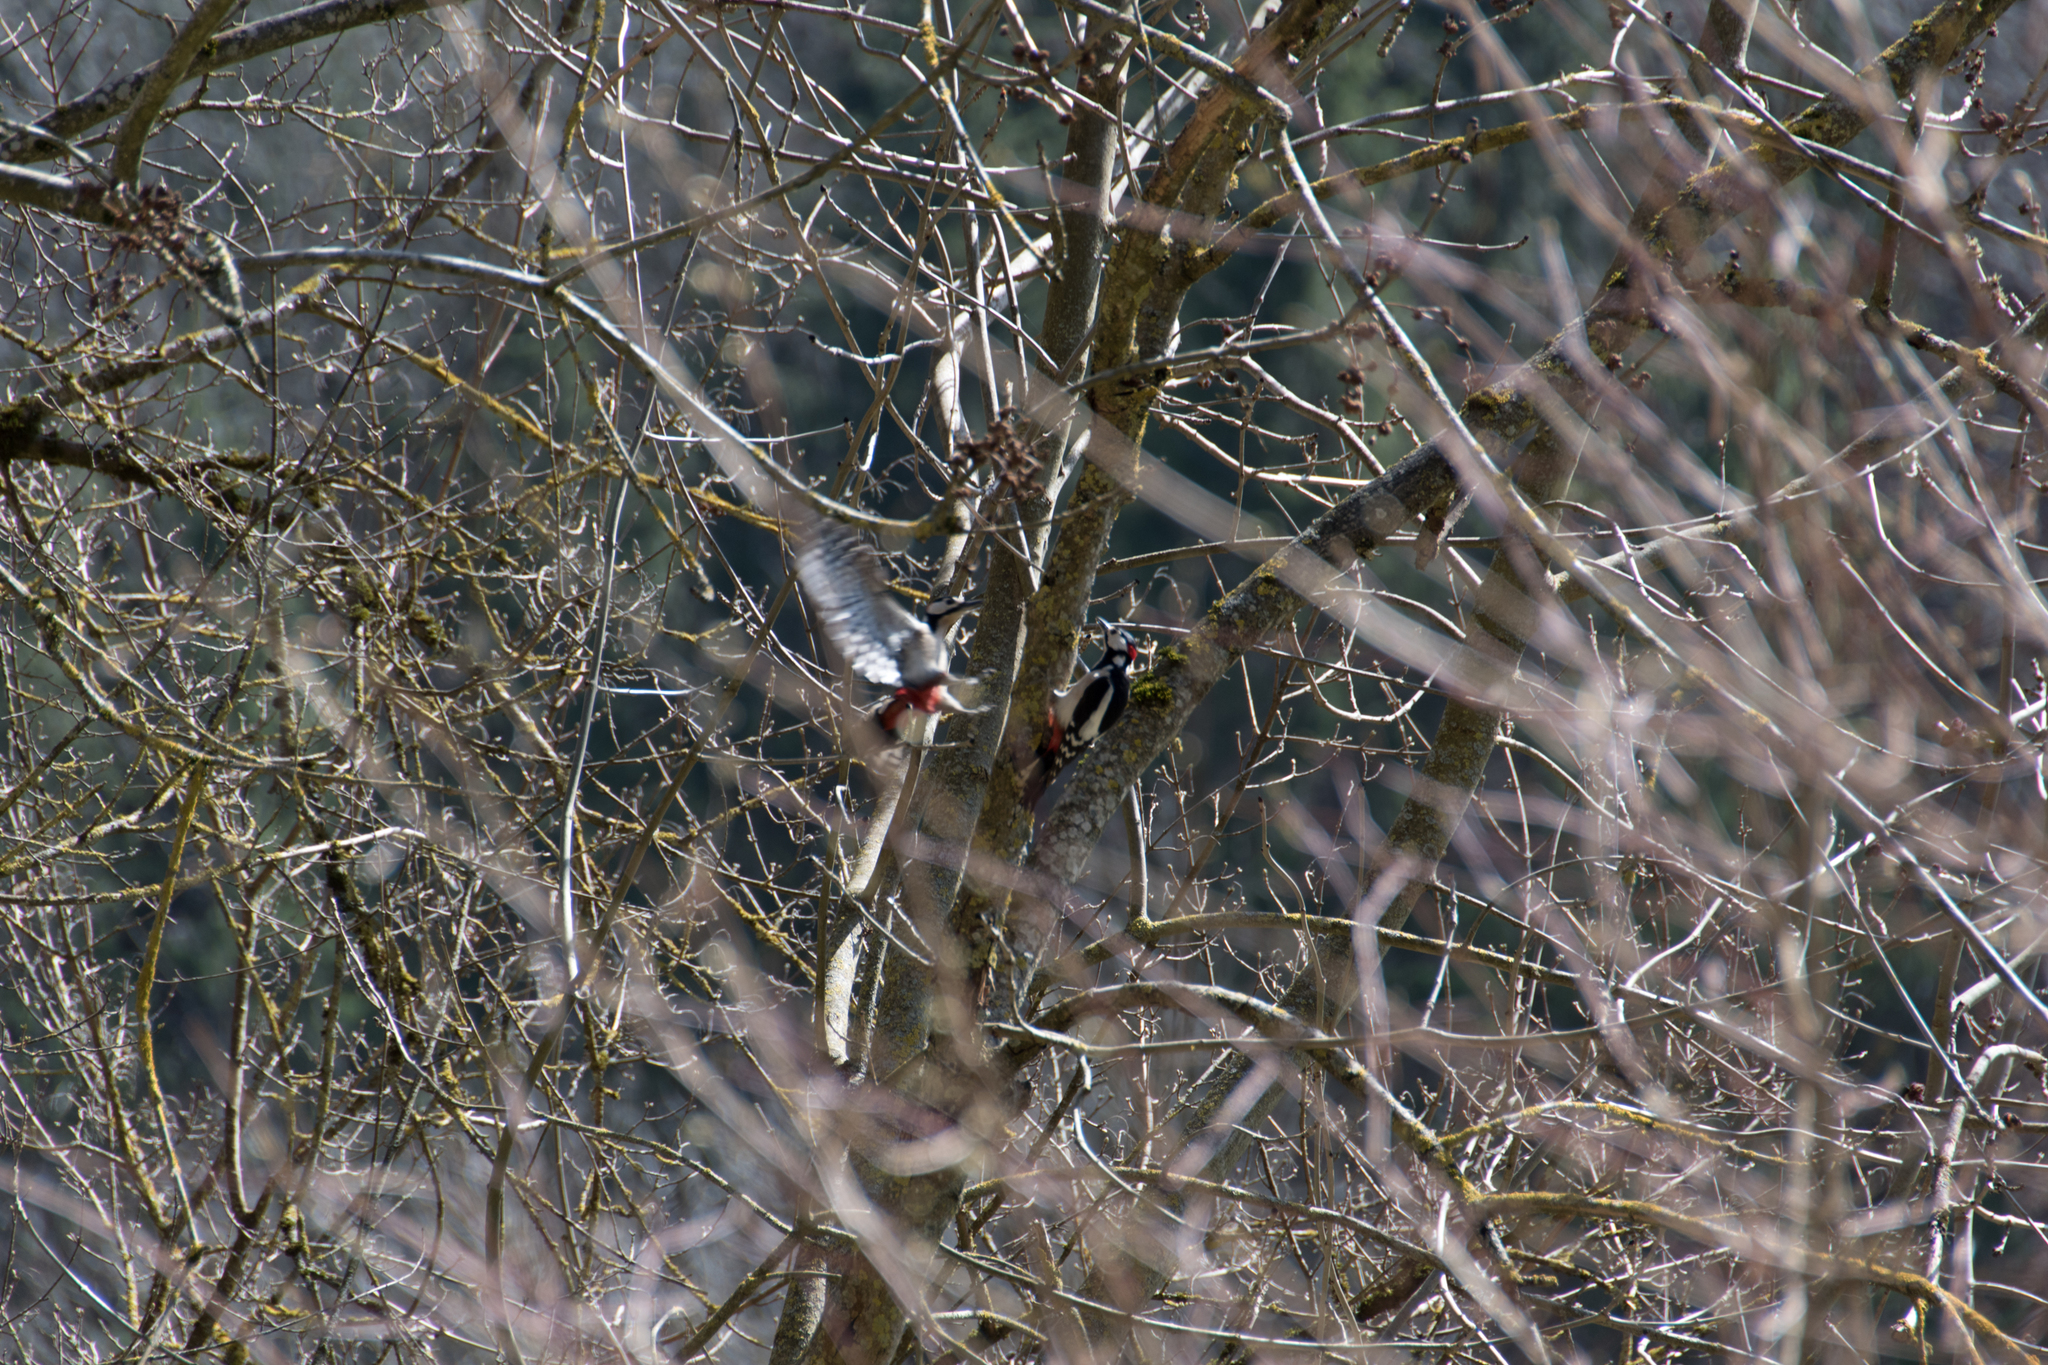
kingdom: Animalia
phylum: Chordata
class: Aves
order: Piciformes
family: Picidae
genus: Dendrocopos
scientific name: Dendrocopos major
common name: Great spotted woodpecker
